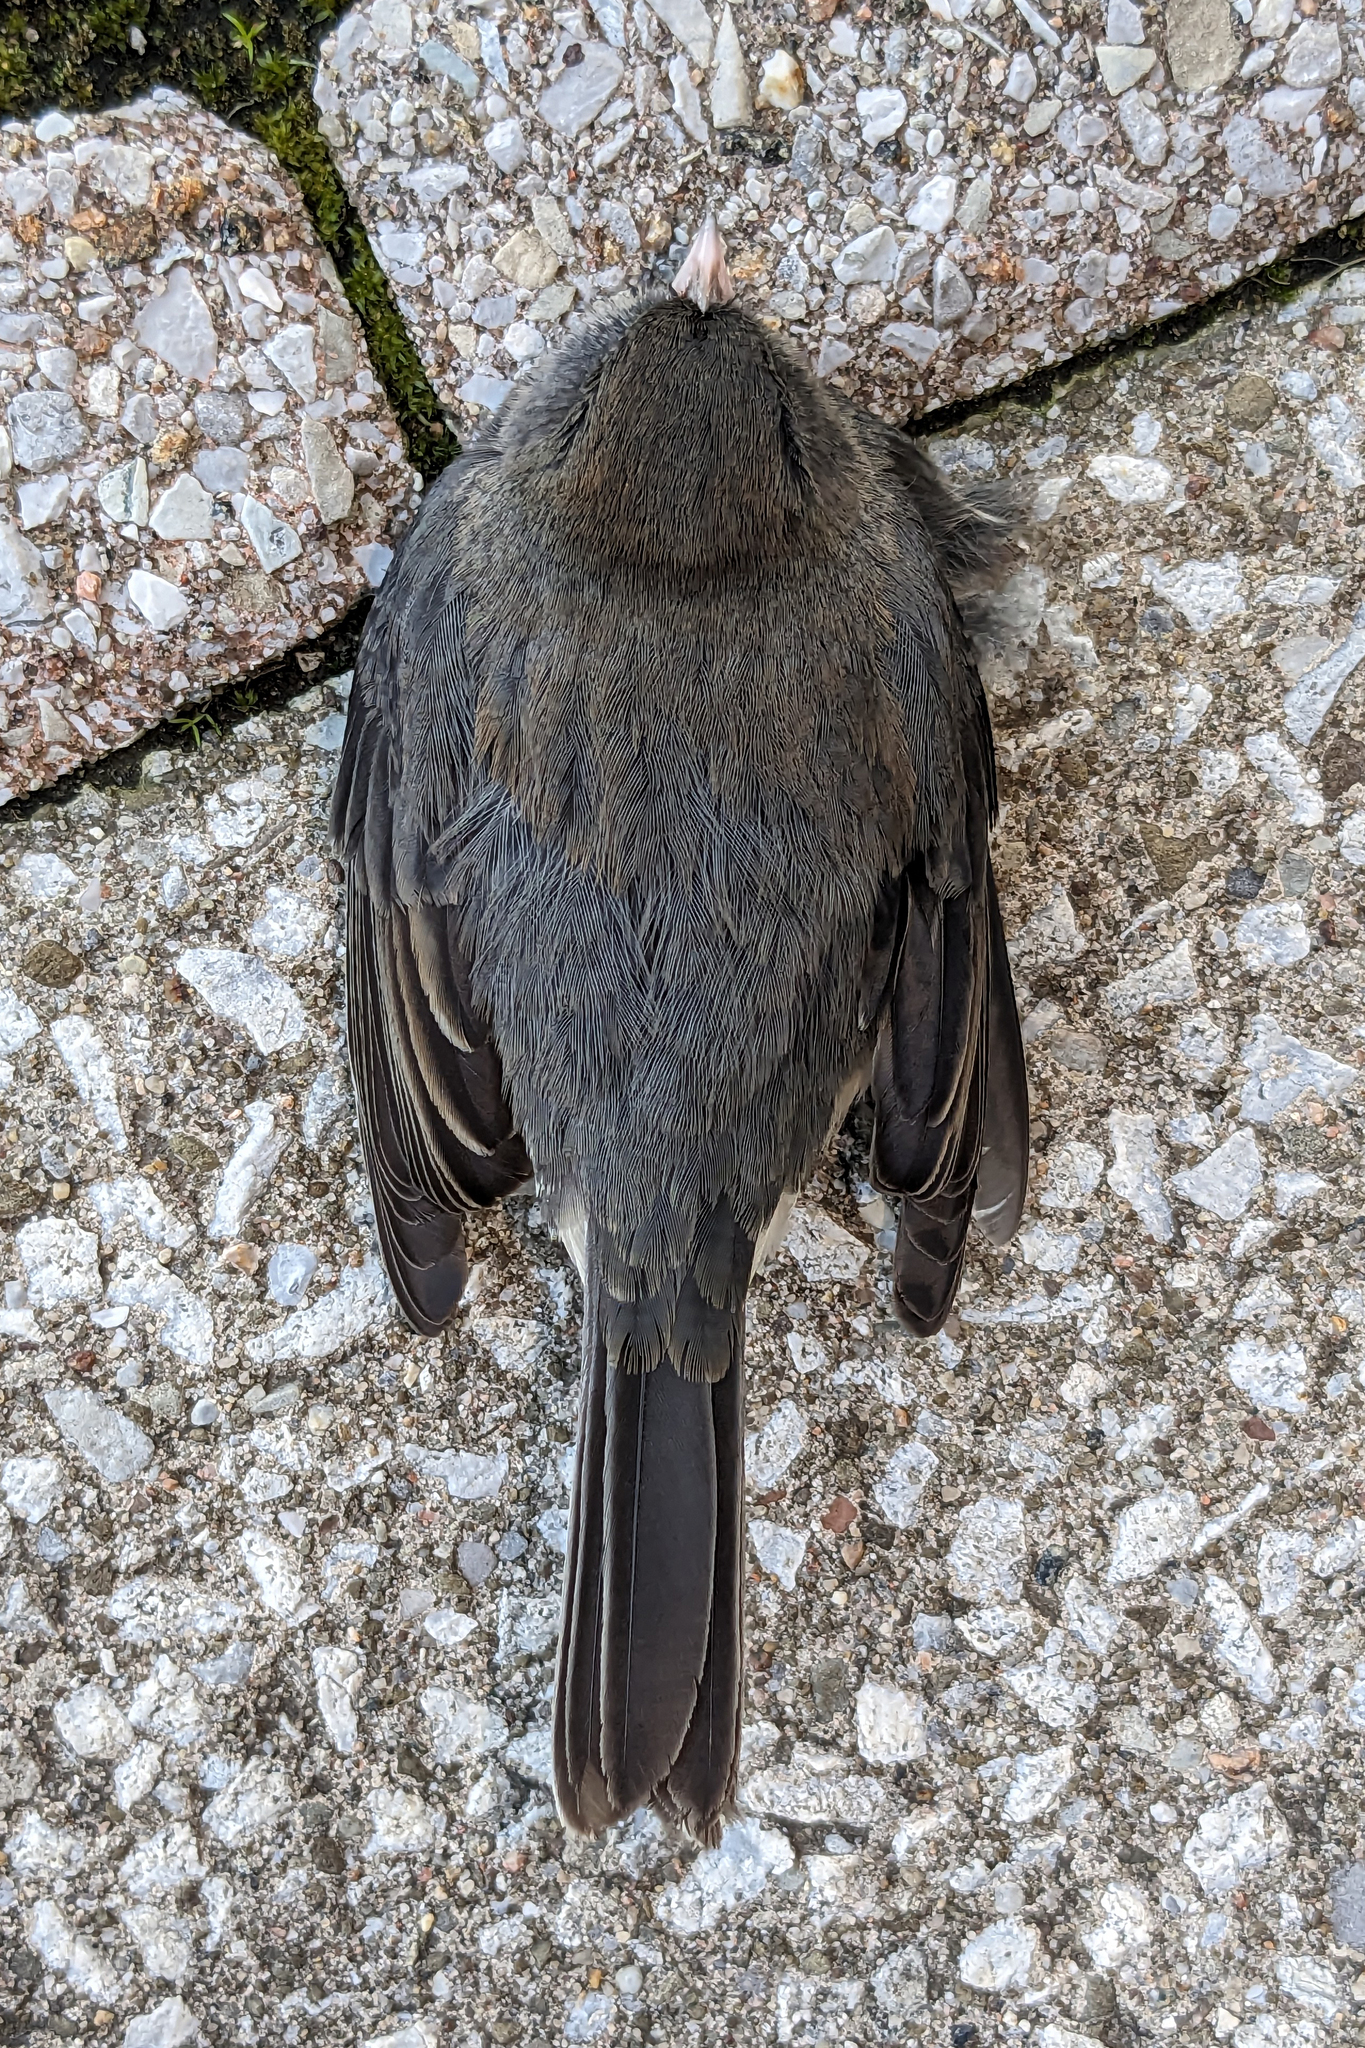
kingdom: Animalia
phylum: Chordata
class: Aves
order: Passeriformes
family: Passerellidae
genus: Junco
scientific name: Junco hyemalis
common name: Dark-eyed junco
